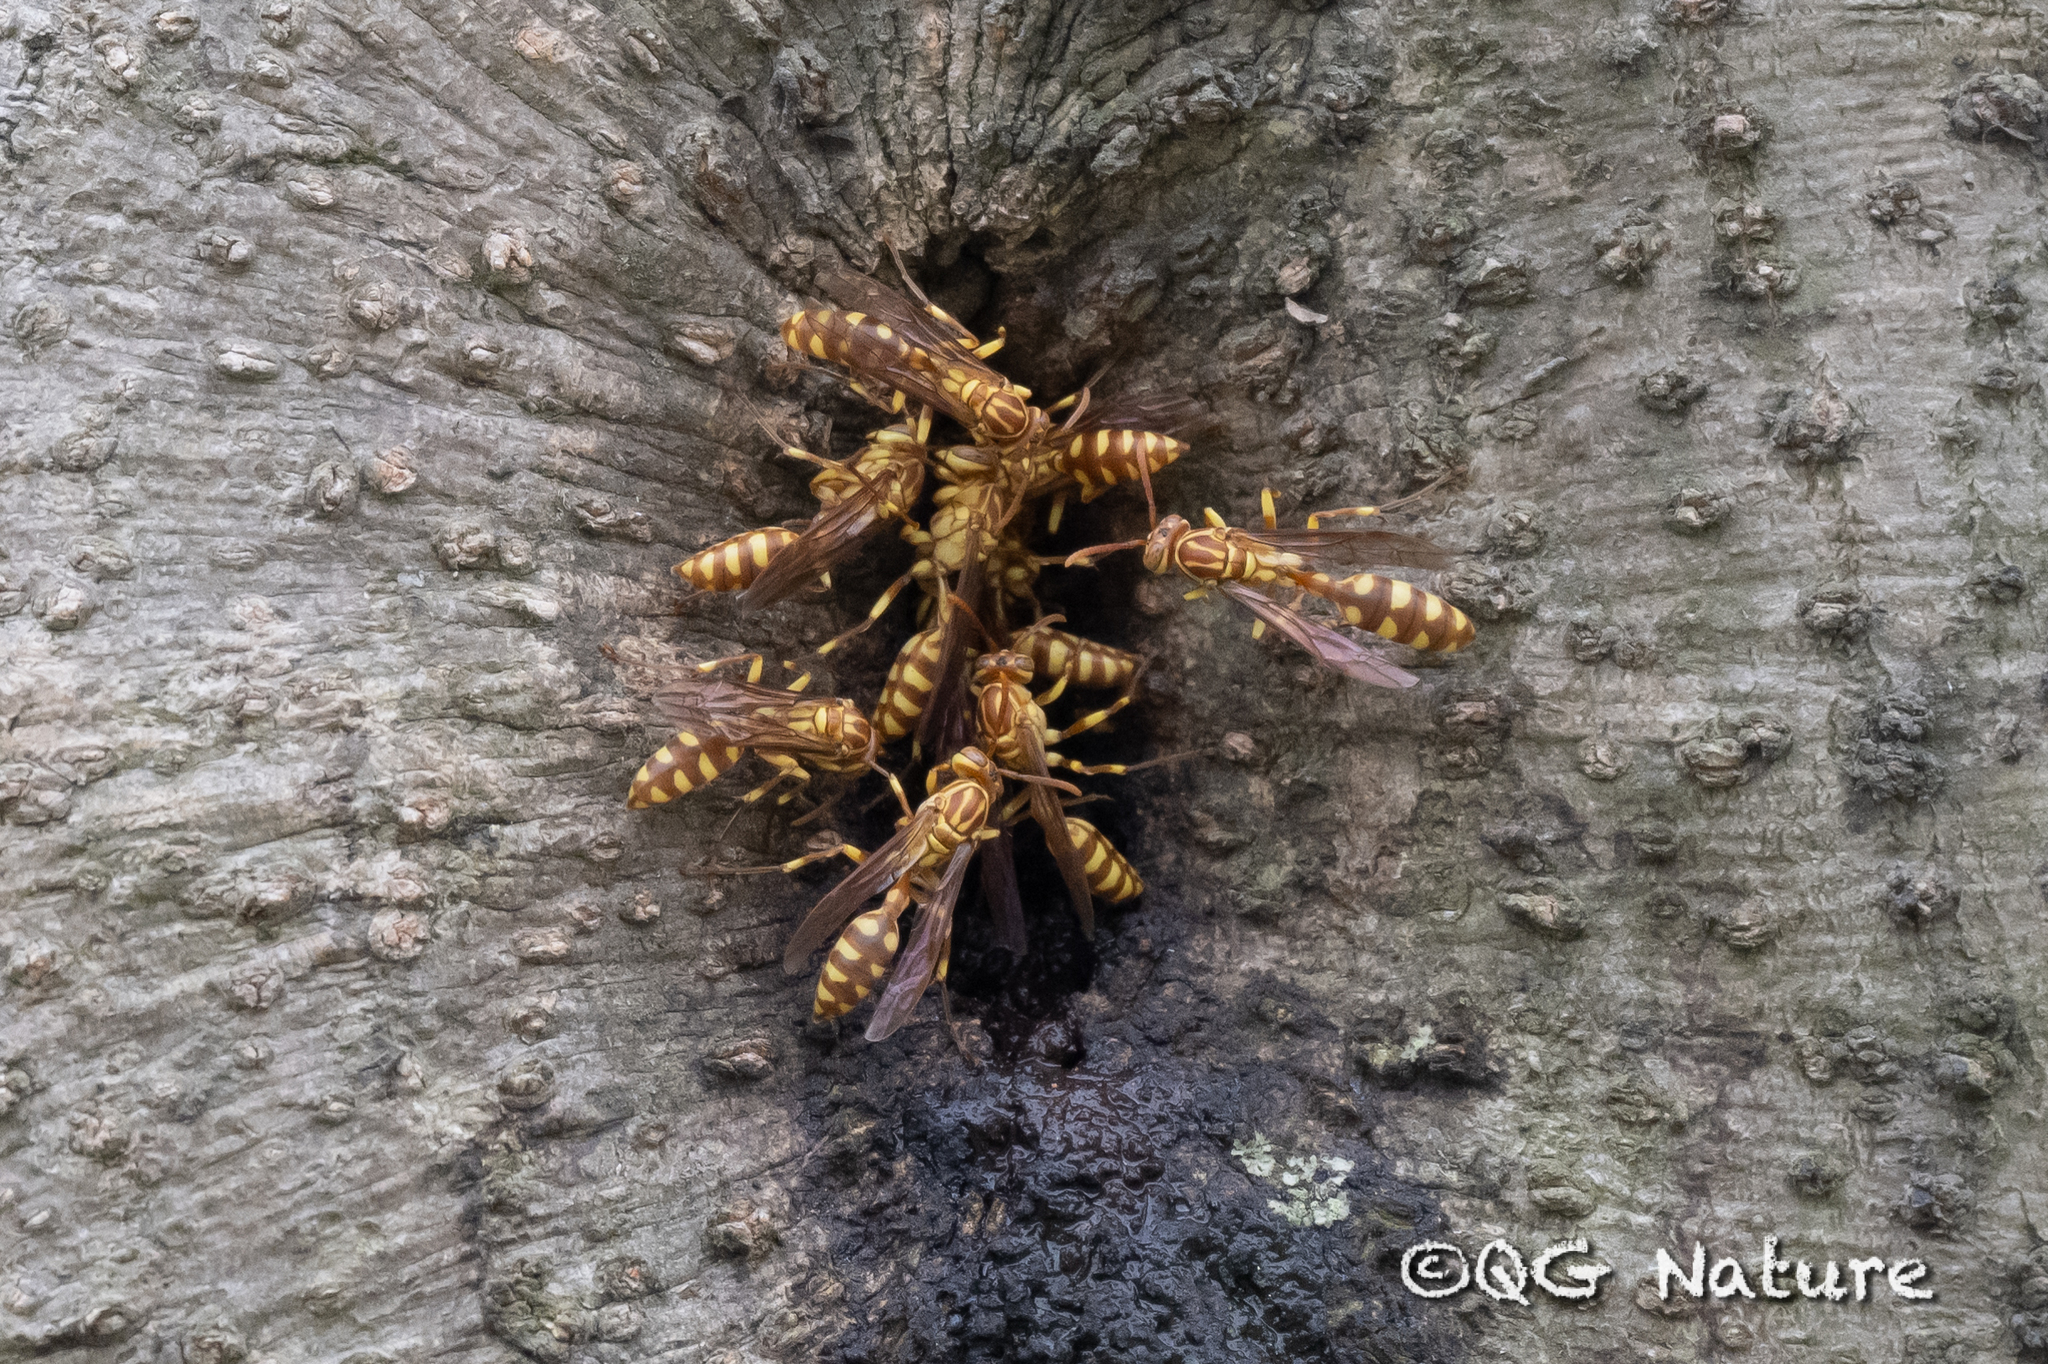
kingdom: Animalia
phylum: Arthropoda
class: Insecta
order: Hymenoptera
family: Vespidae
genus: Parapolybia
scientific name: Parapolybia varia
